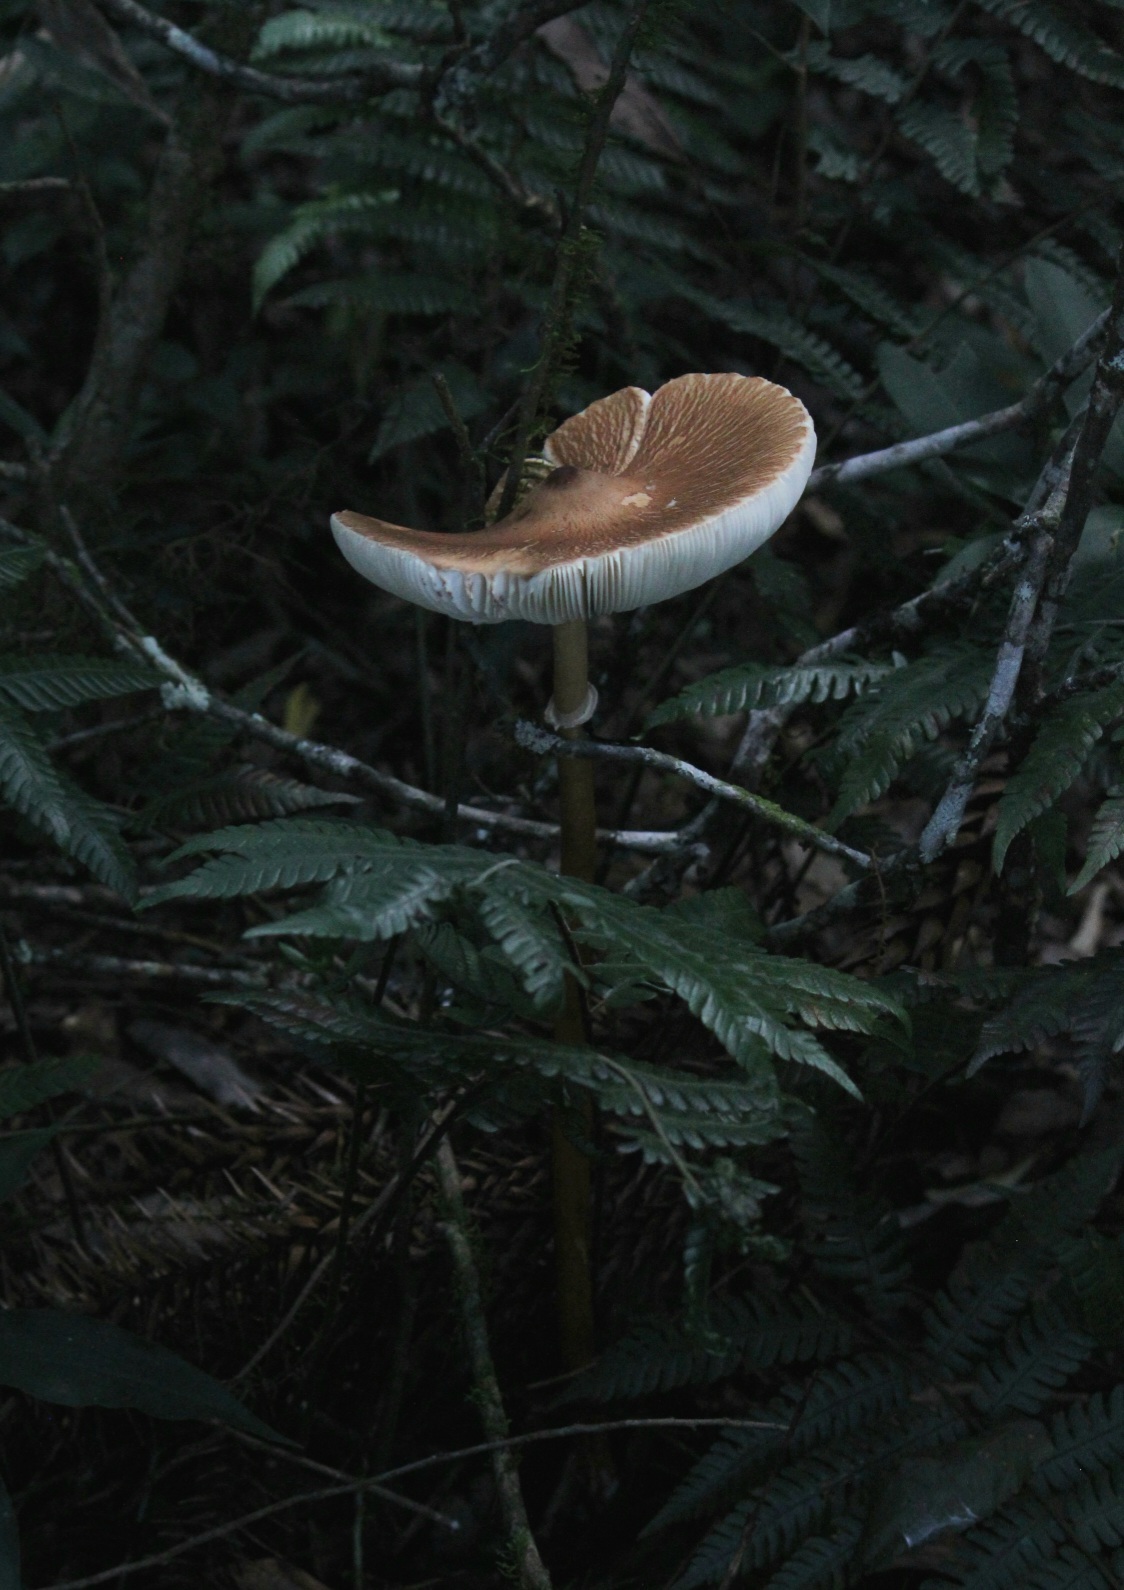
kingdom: Fungi
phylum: Basidiomycota
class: Agaricomycetes
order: Agaricales
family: Agaricaceae
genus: Macrolepiota
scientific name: Macrolepiota capelariae
